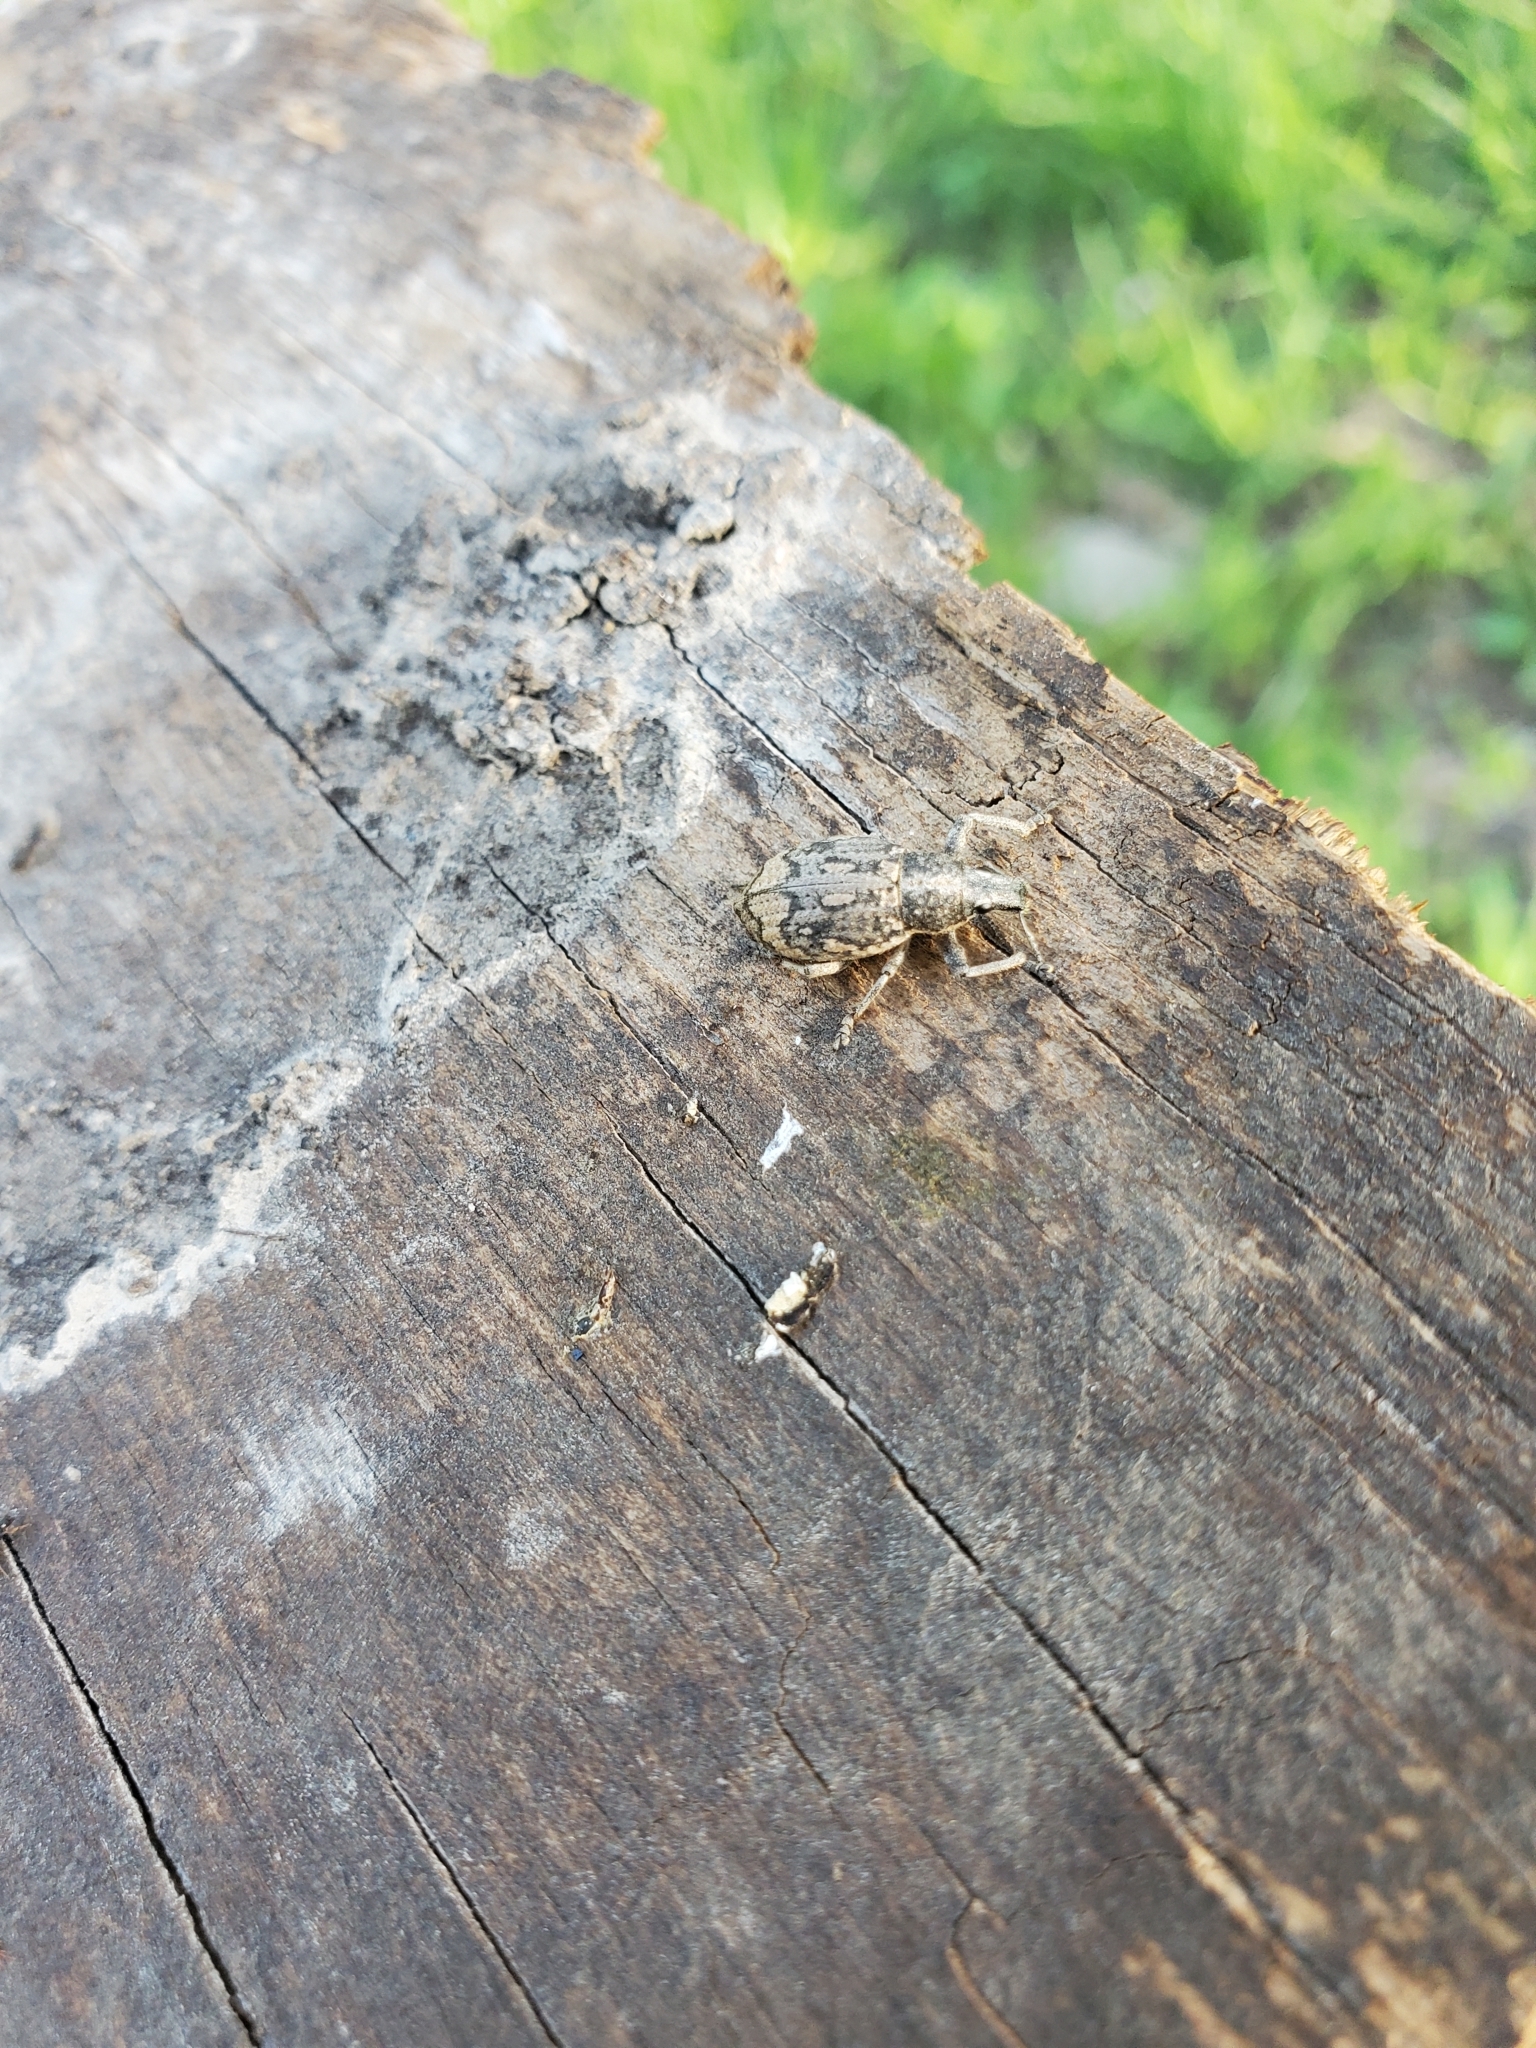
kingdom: Animalia
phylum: Arthropoda
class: Insecta
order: Coleoptera
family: Curculionidae
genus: Epicaerus
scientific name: Epicaerus imbricatus
